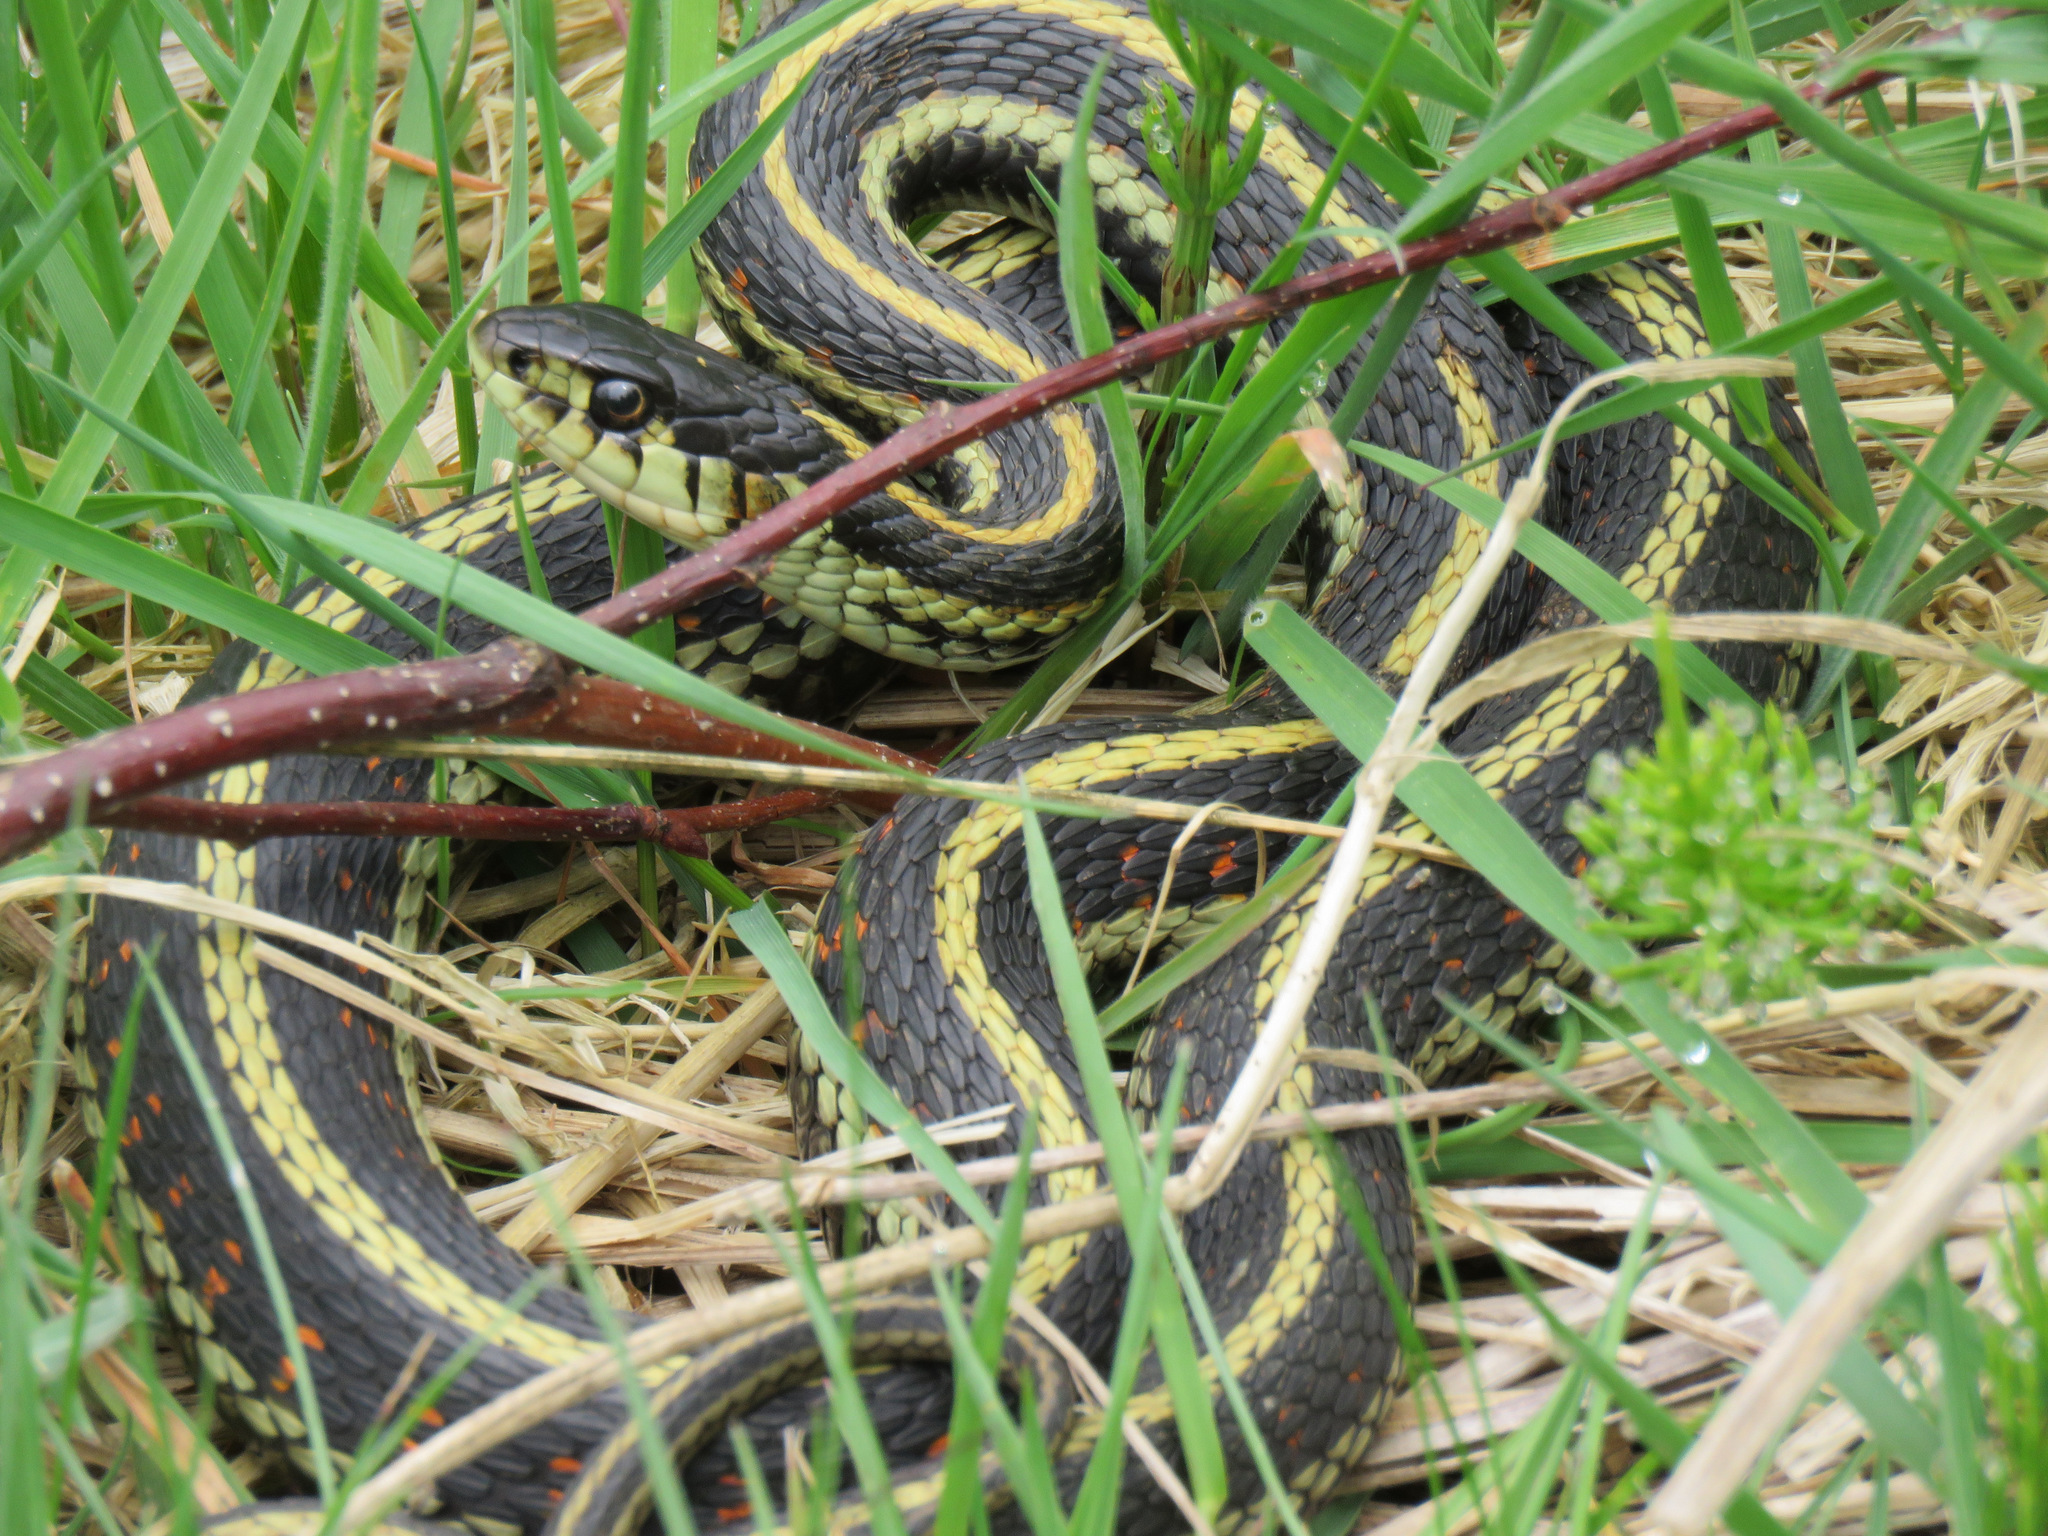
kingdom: Animalia
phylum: Chordata
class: Squamata
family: Colubridae
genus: Thamnophis
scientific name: Thamnophis sirtalis
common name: Common garter snake
